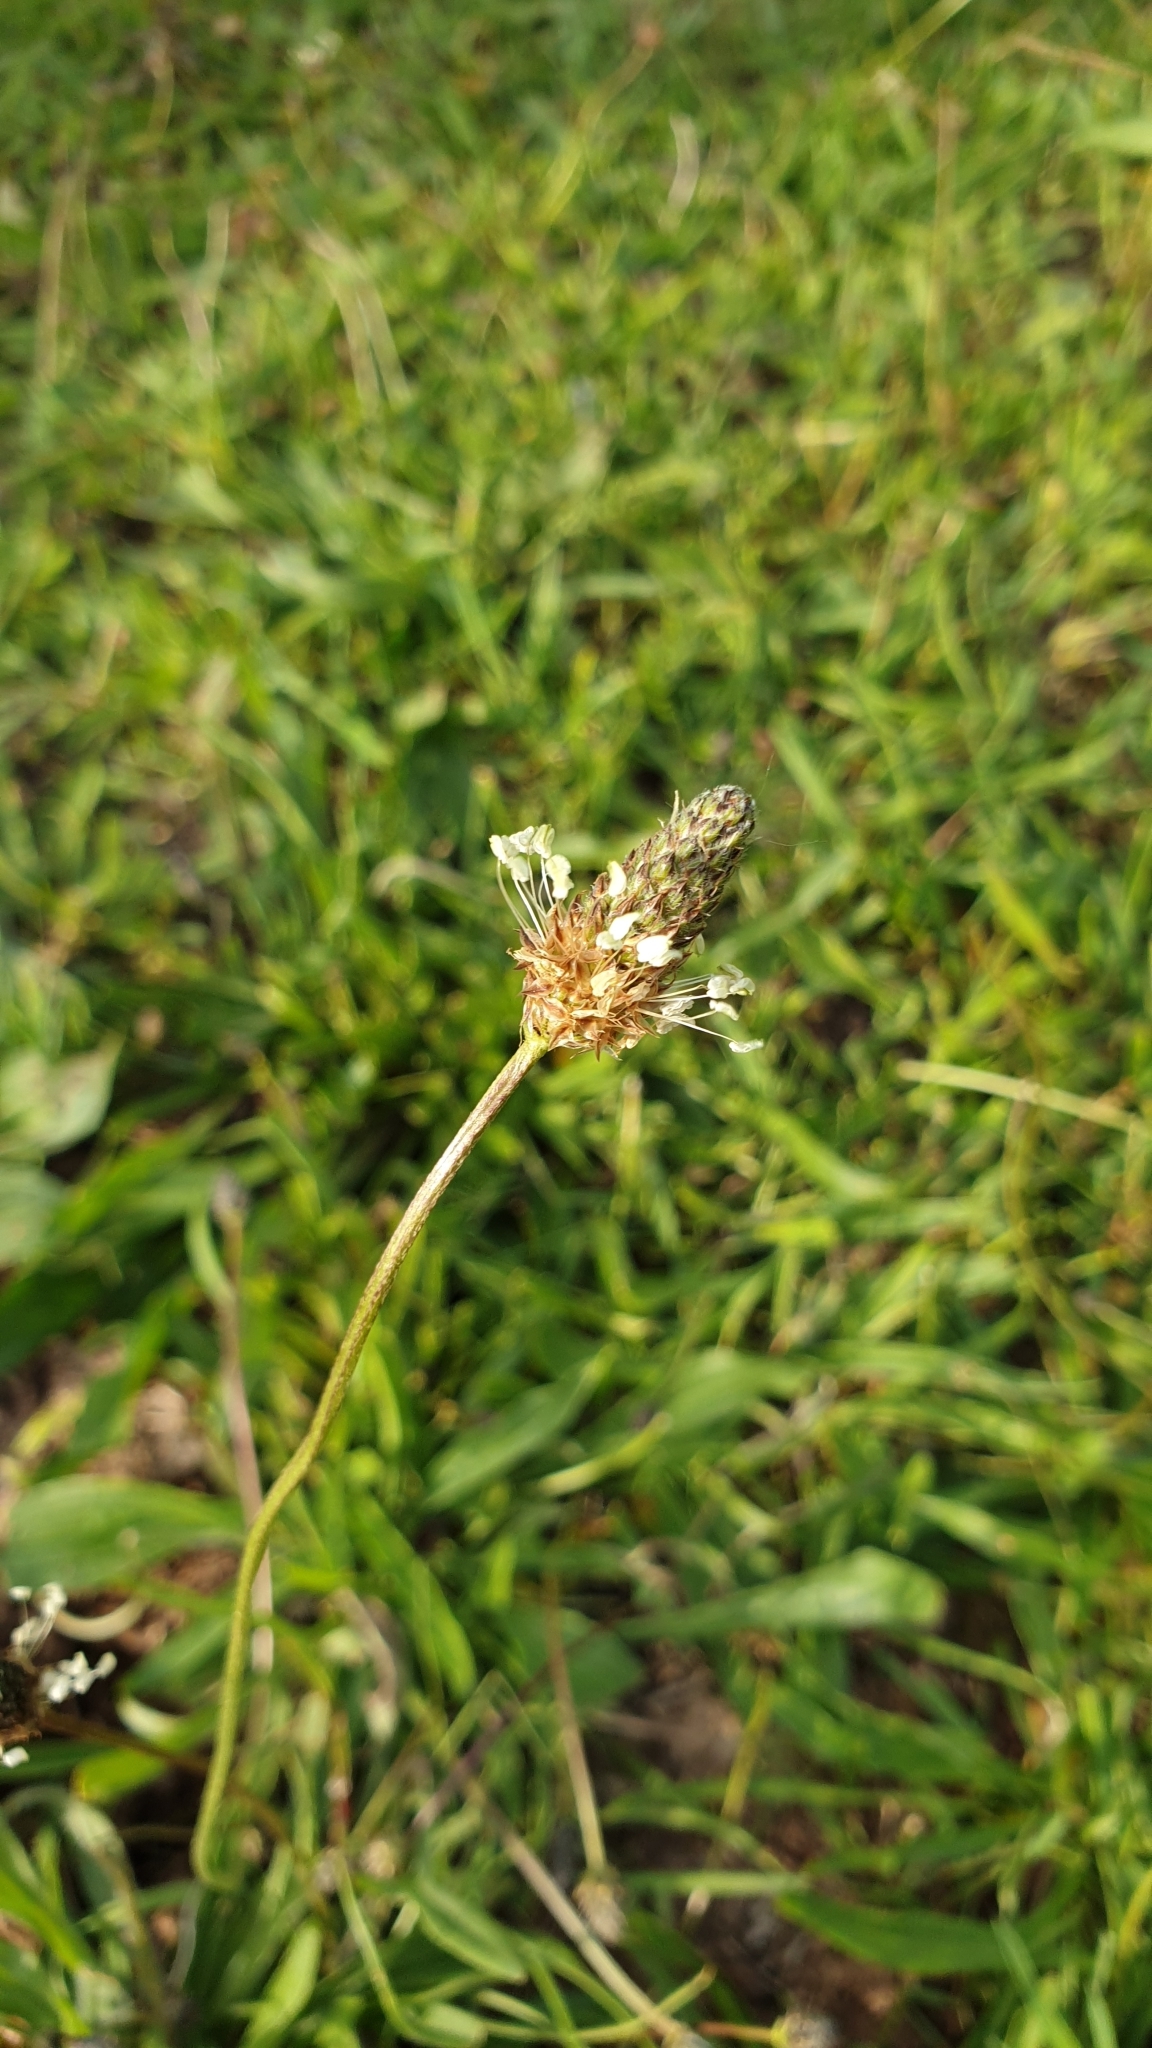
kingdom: Plantae
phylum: Tracheophyta
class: Magnoliopsida
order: Lamiales
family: Plantaginaceae
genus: Plantago
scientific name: Plantago lanceolata
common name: Ribwort plantain
